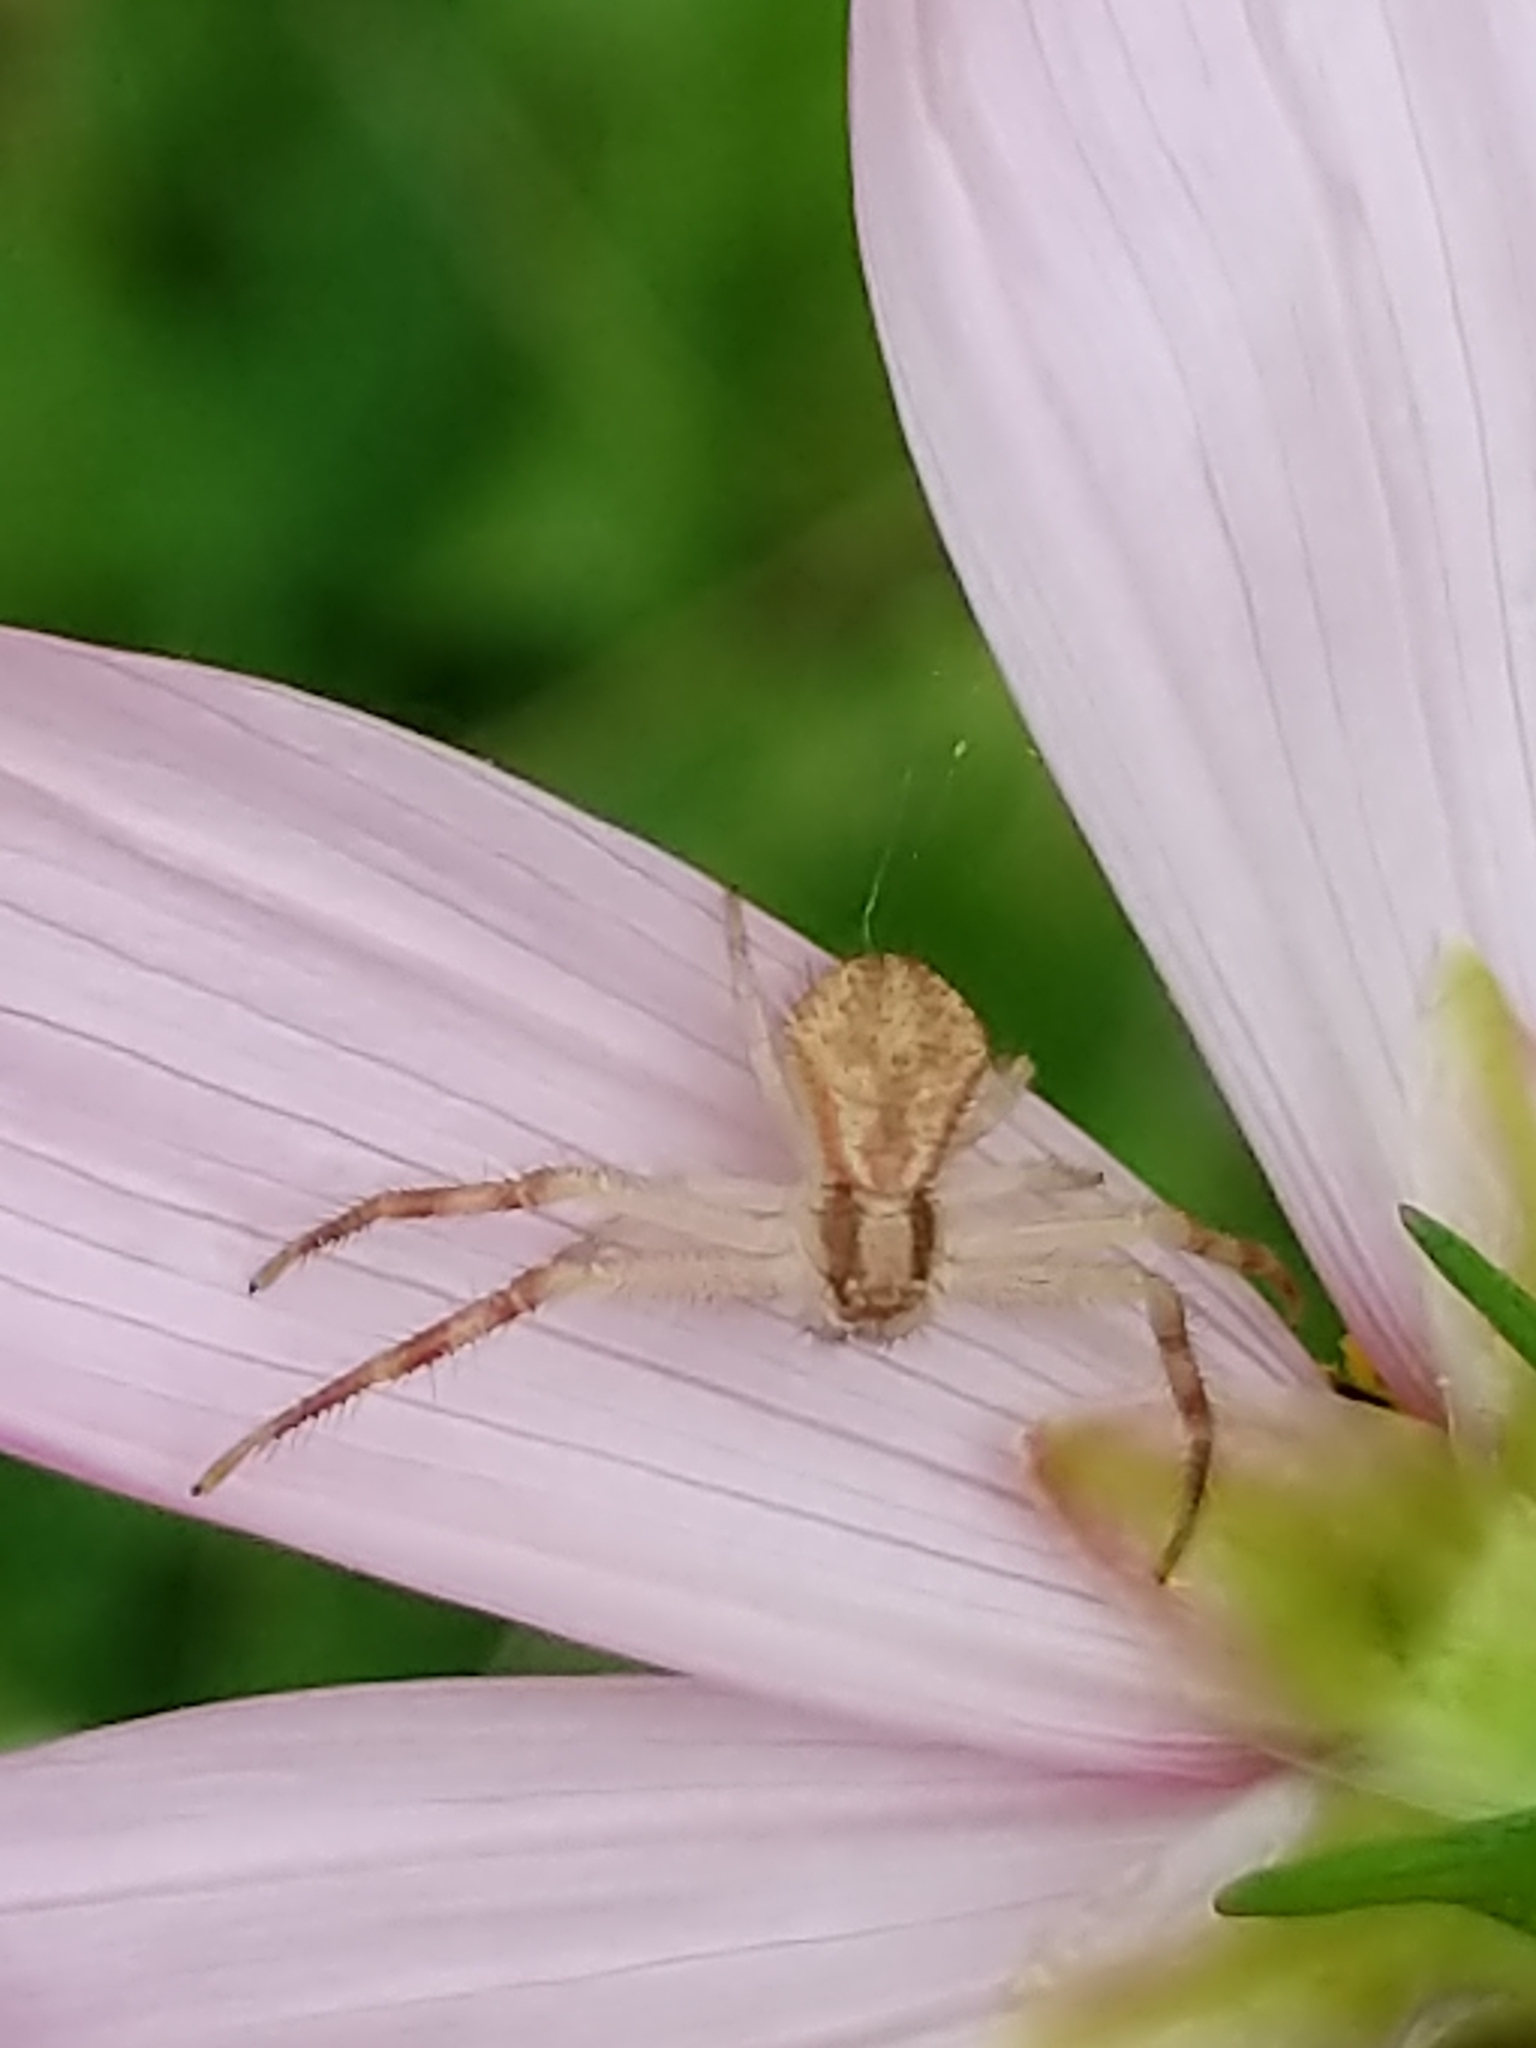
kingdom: Animalia
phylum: Arthropoda
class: Arachnida
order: Araneae
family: Thomisidae
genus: Mecaphesa
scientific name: Mecaphesa asperata
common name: Crab spiders
